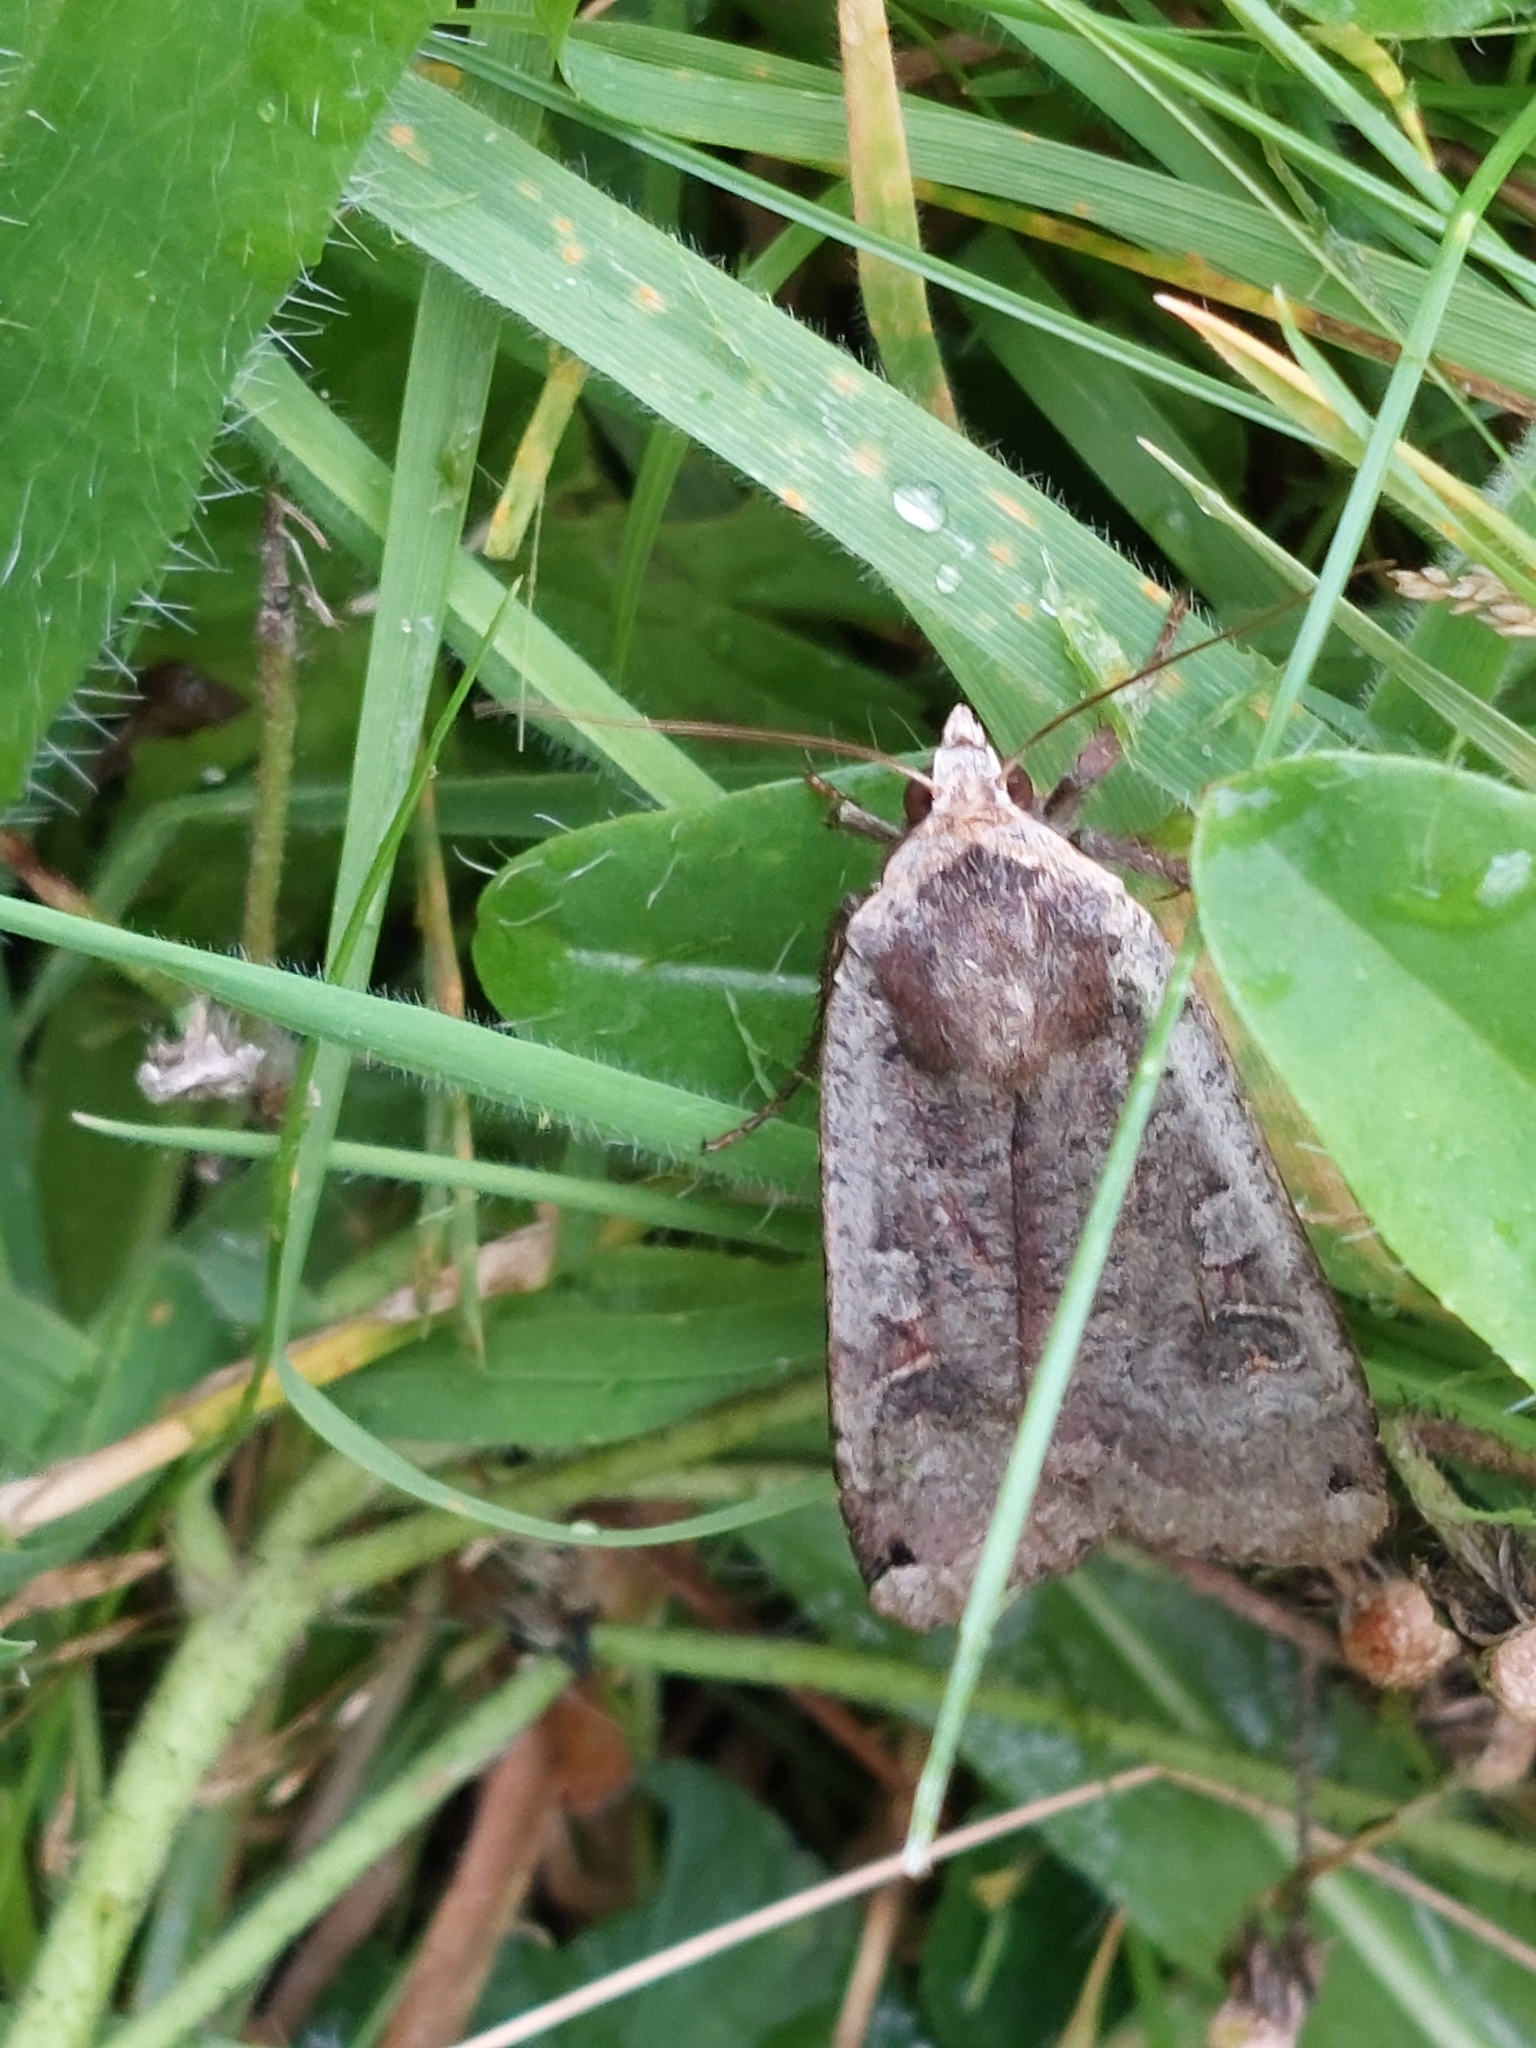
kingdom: Animalia
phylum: Arthropoda
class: Insecta
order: Lepidoptera
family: Noctuidae
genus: Noctua
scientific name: Noctua pronuba
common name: Large yellow underwing
